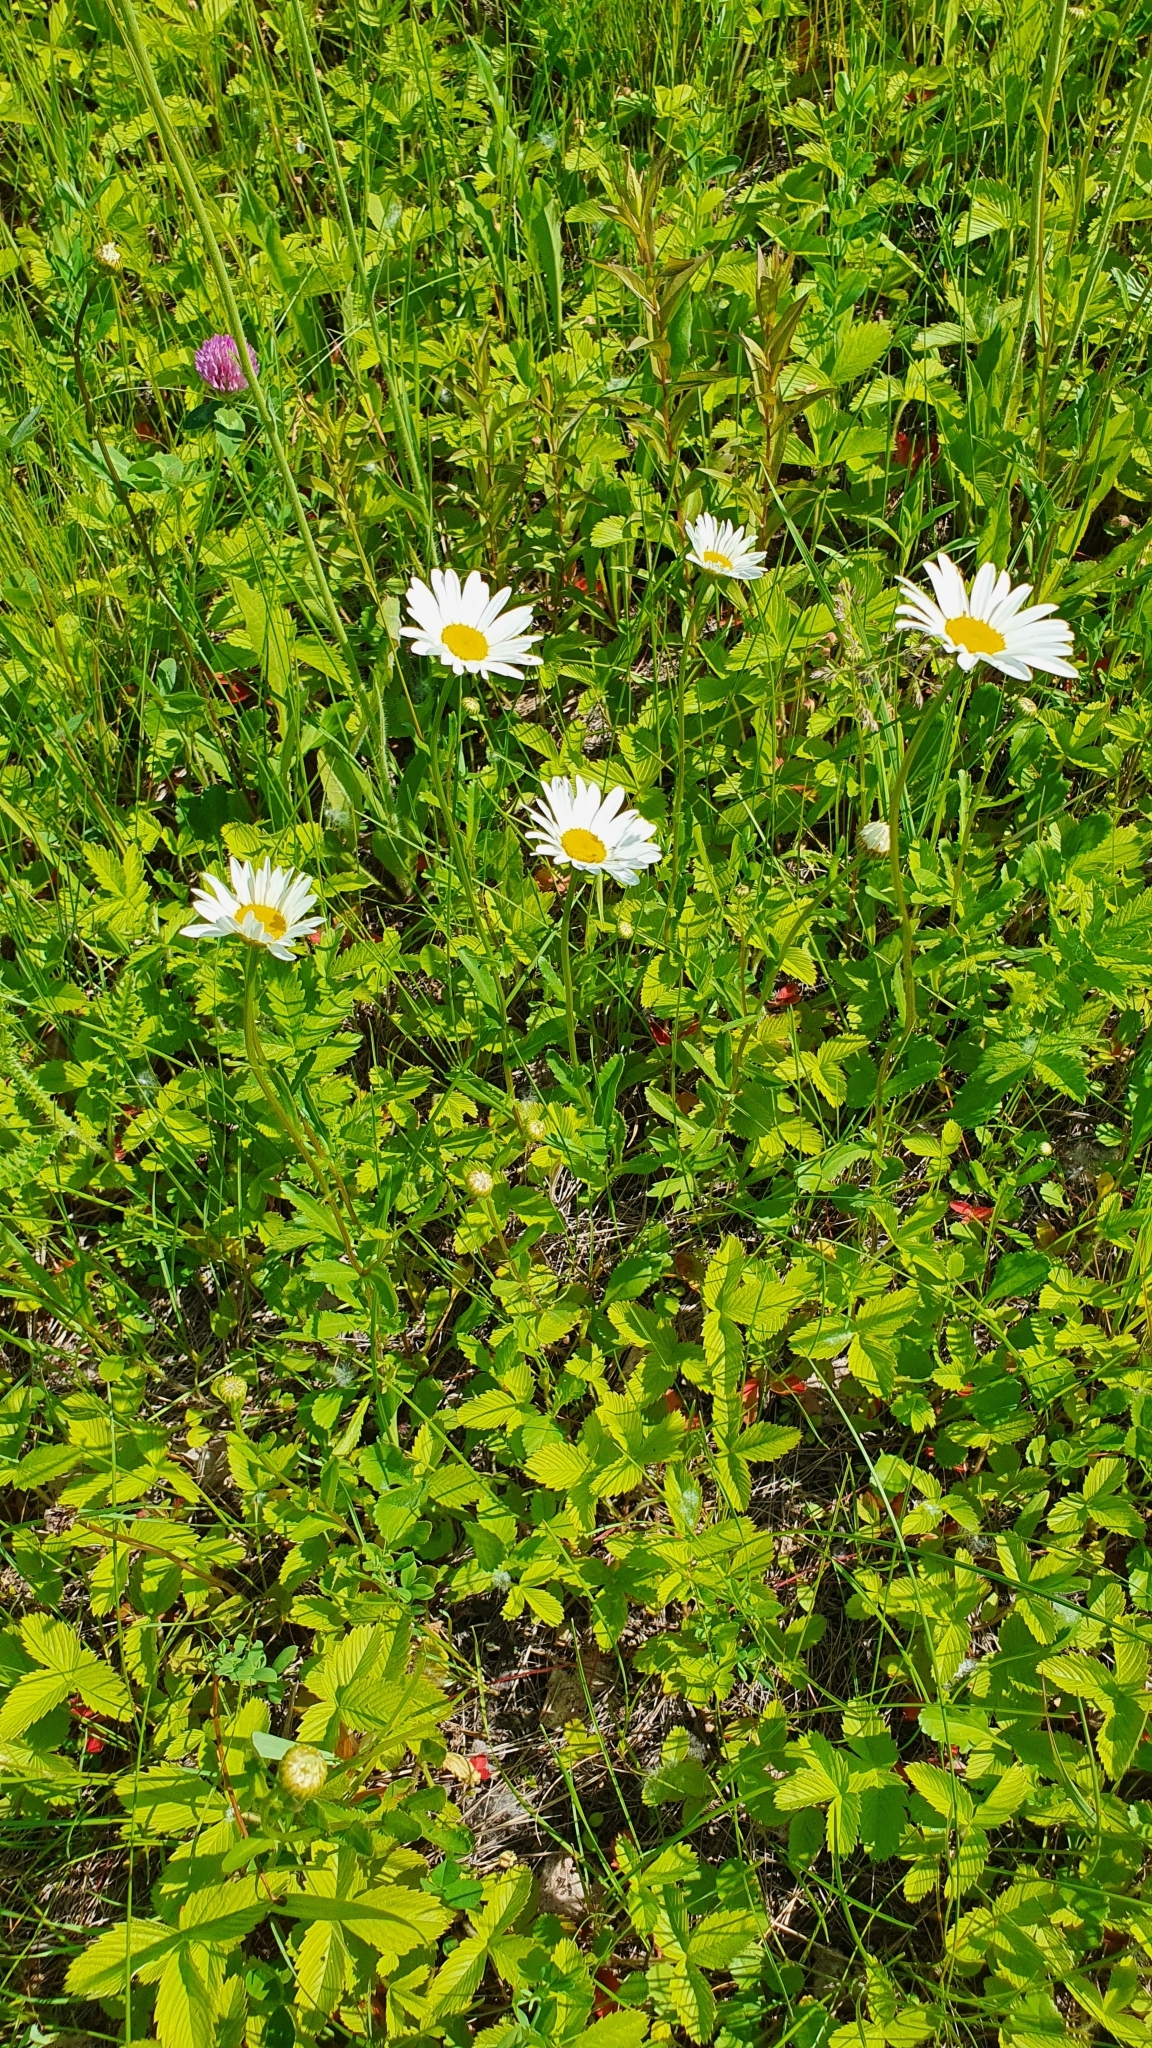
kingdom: Plantae
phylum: Tracheophyta
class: Magnoliopsida
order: Asterales
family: Asteraceae
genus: Leucanthemum
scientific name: Leucanthemum vulgare
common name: Oxeye daisy
